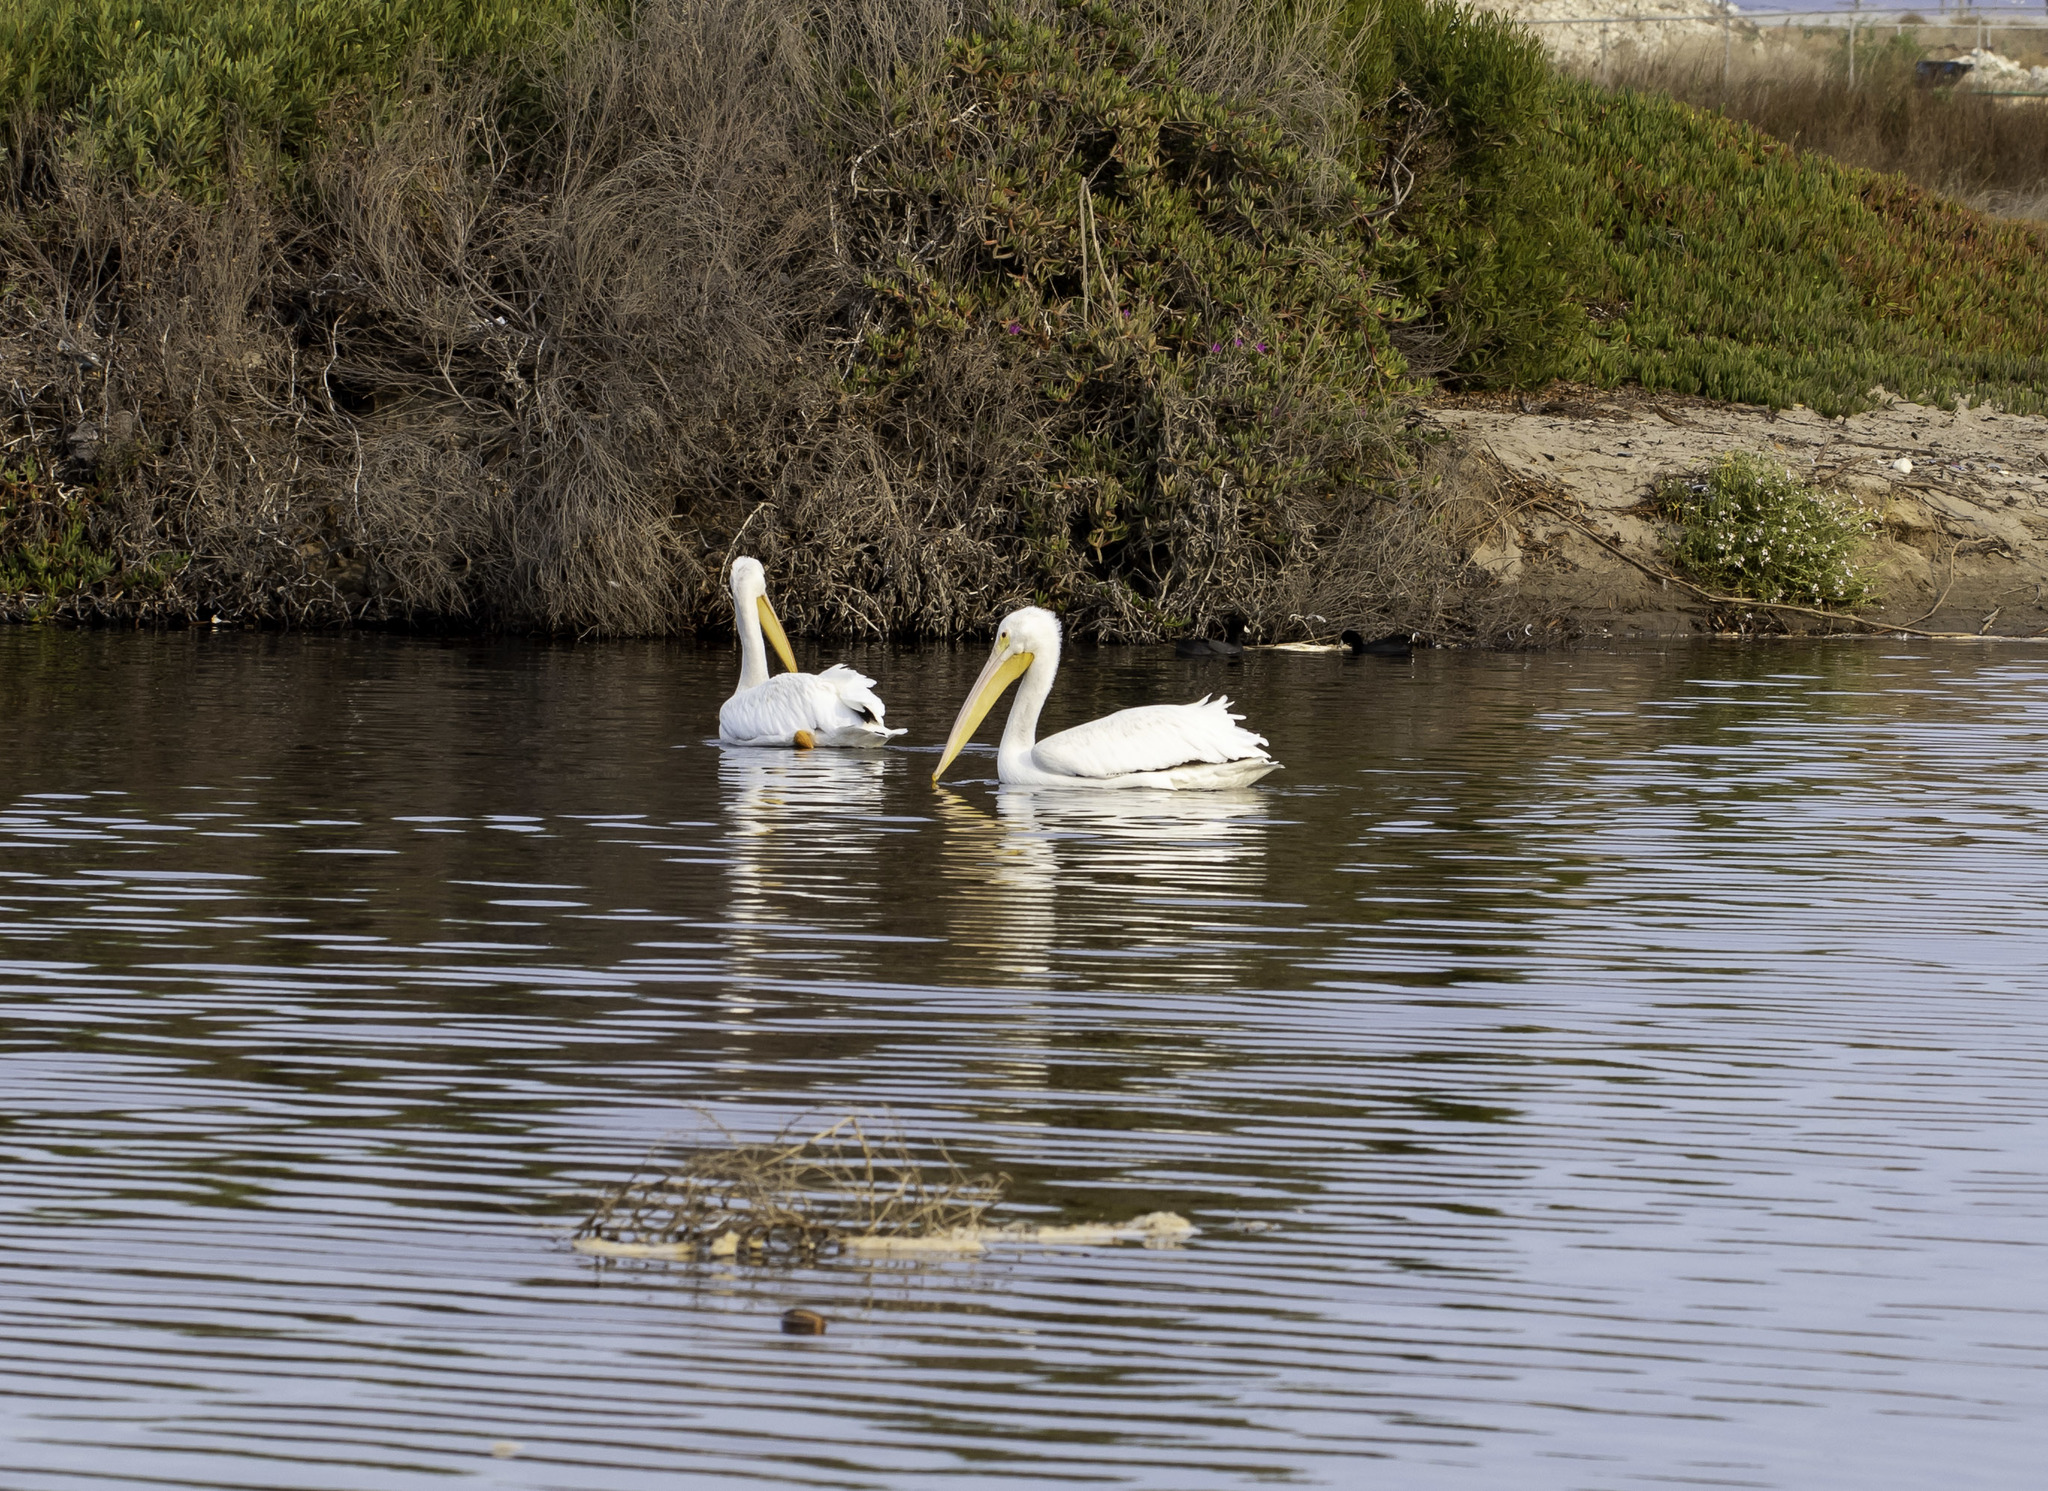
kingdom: Animalia
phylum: Chordata
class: Aves
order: Pelecaniformes
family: Pelecanidae
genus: Pelecanus
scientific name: Pelecanus erythrorhynchos
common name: American white pelican
